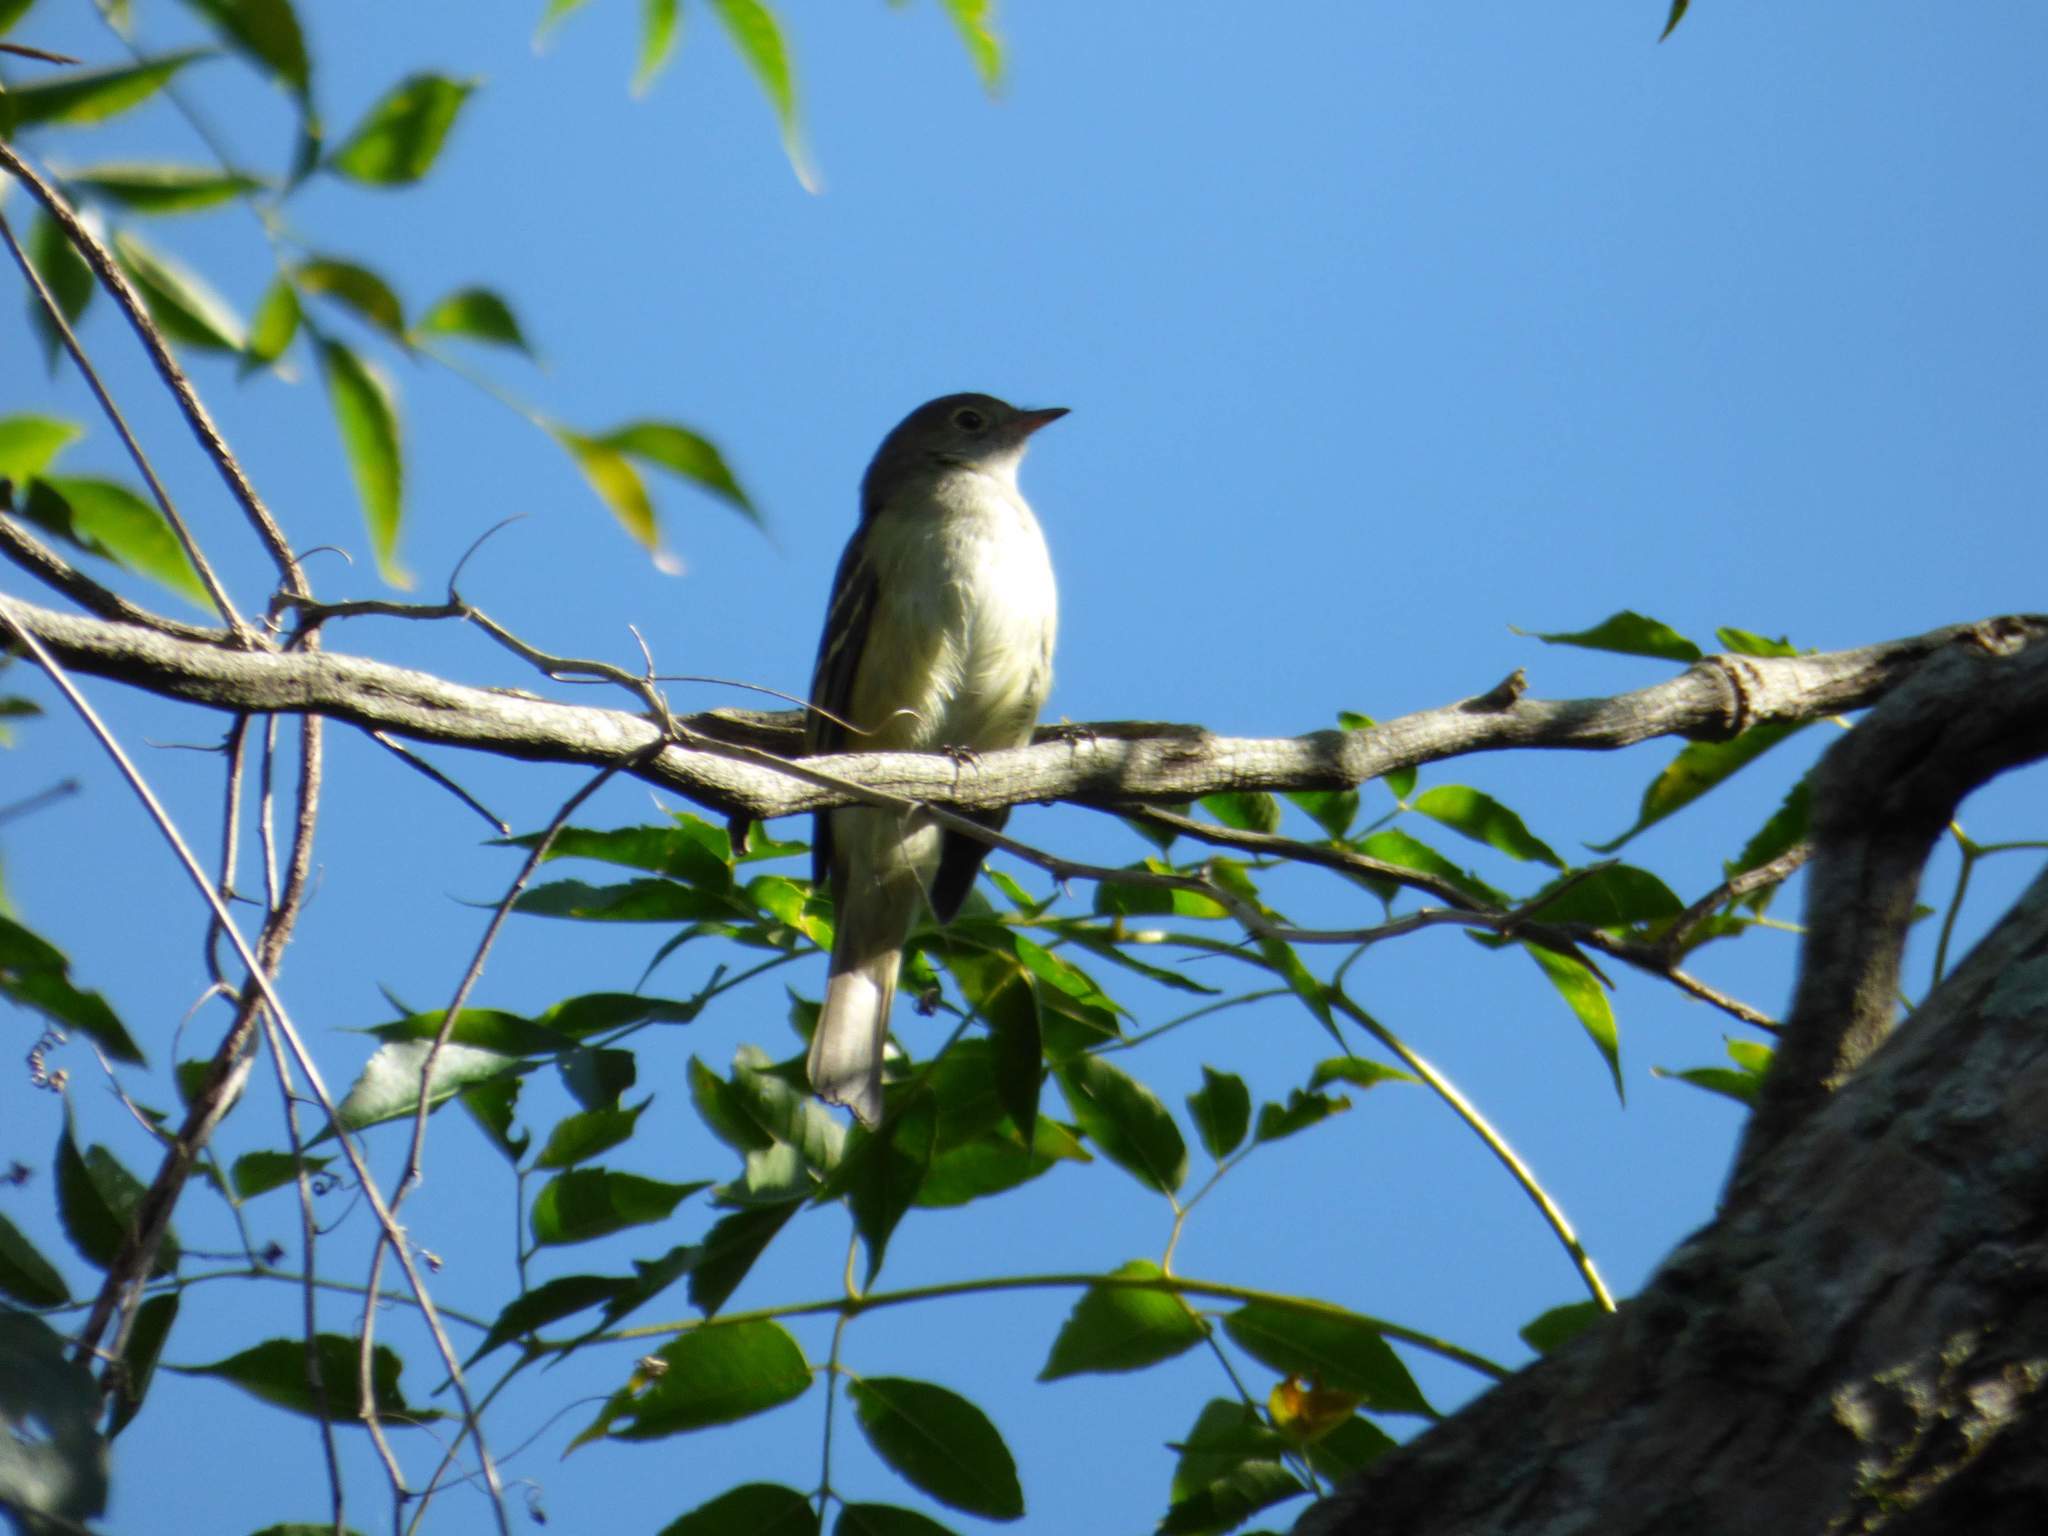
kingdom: Animalia
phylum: Chordata
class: Aves
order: Passeriformes
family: Tyrannidae
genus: Elaenia
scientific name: Elaenia parvirostris
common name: Small-billed elaenia
